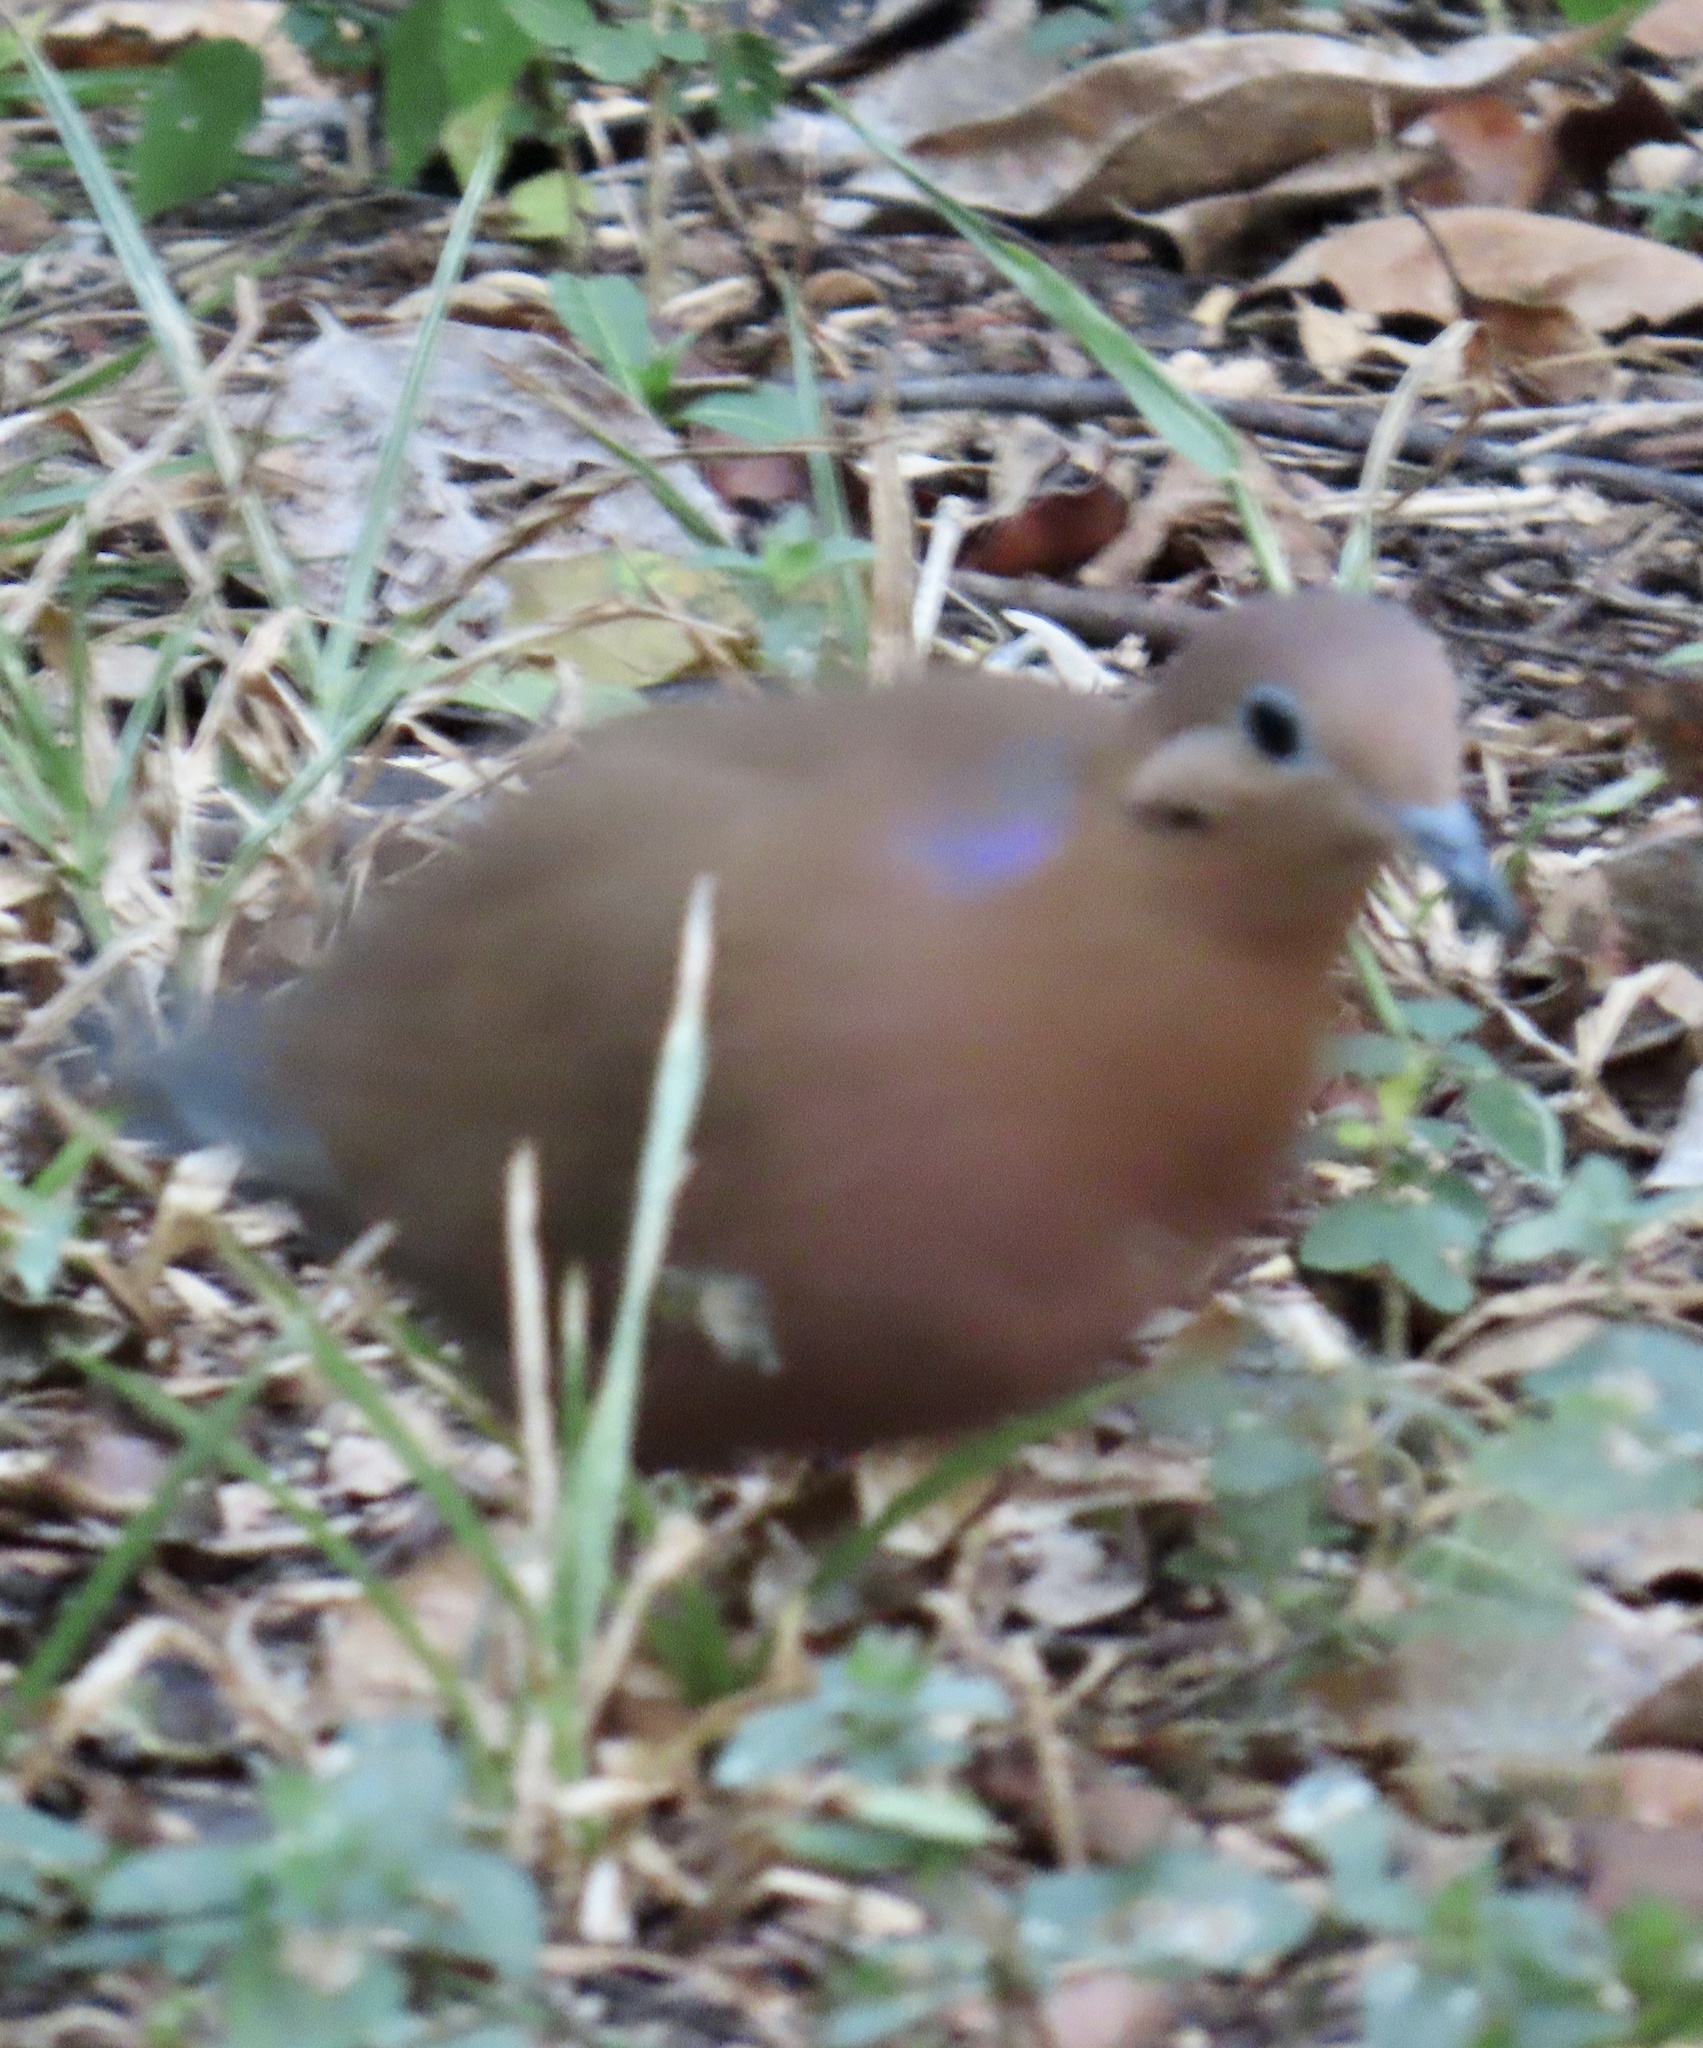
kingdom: Animalia
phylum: Chordata
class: Aves
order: Columbiformes
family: Columbidae
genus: Zenaida
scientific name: Zenaida aurita
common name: Zenaida dove
